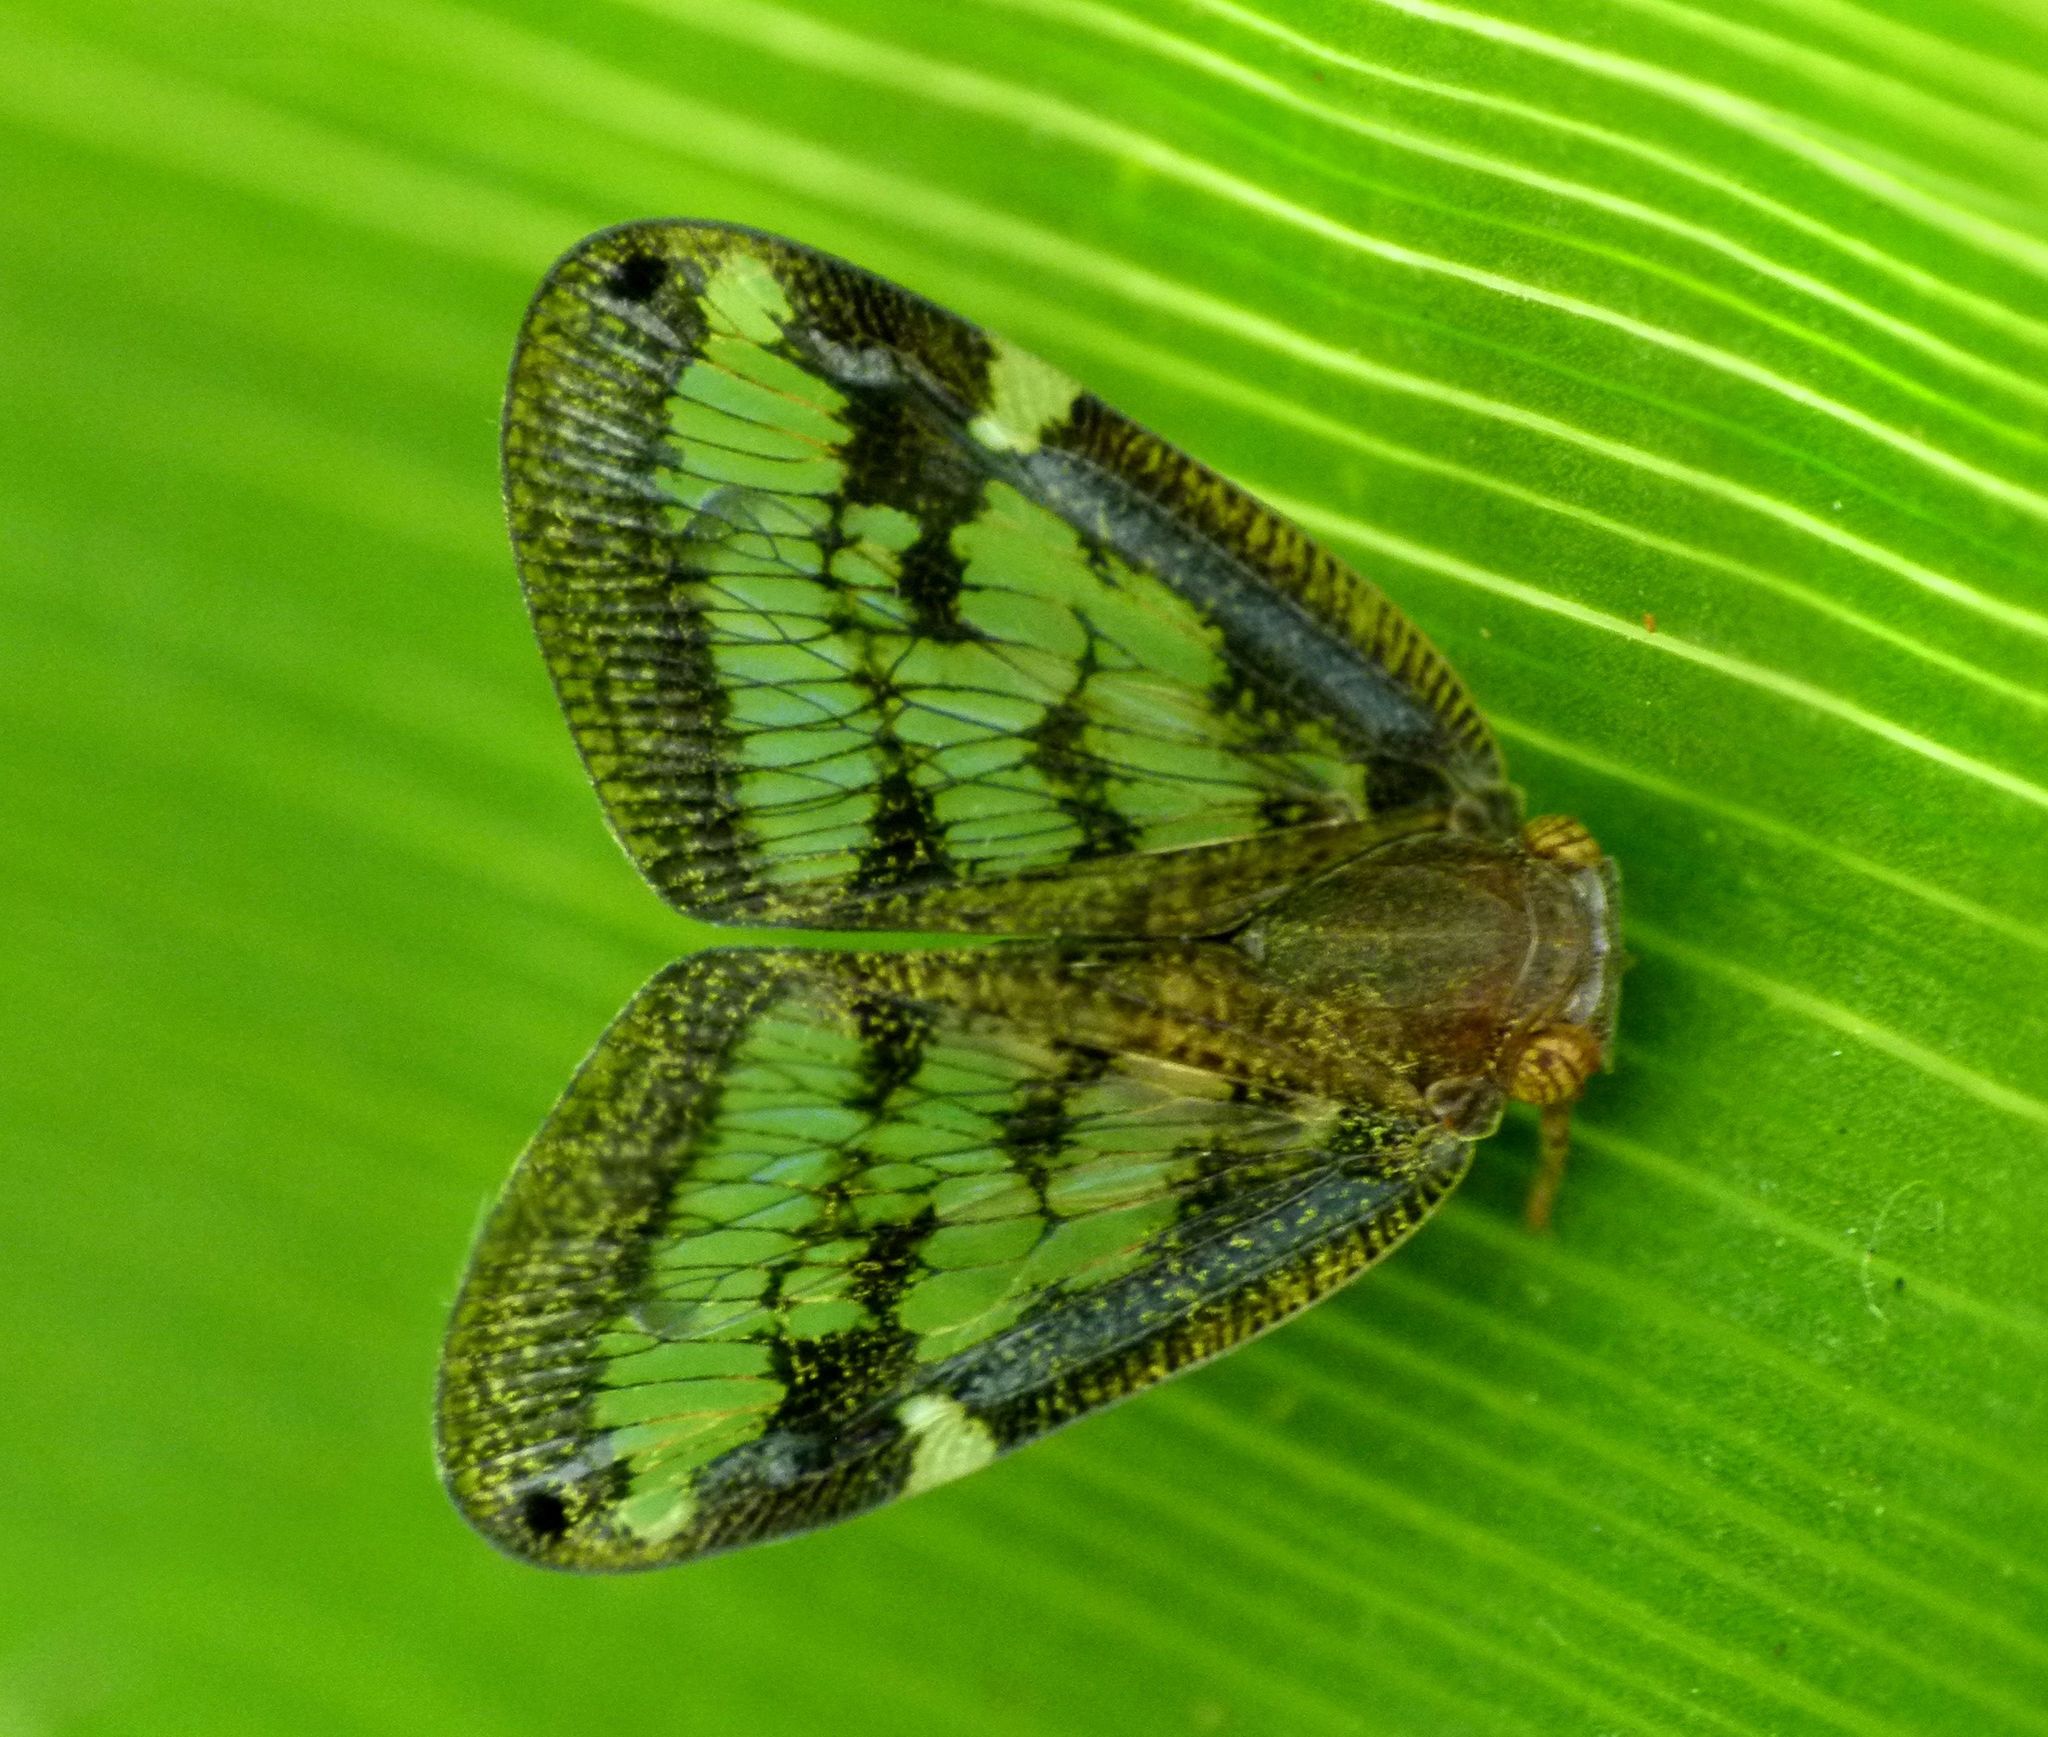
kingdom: Animalia
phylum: Arthropoda
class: Insecta
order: Hemiptera
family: Ricaniidae
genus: Scolypopa
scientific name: Scolypopa australis
